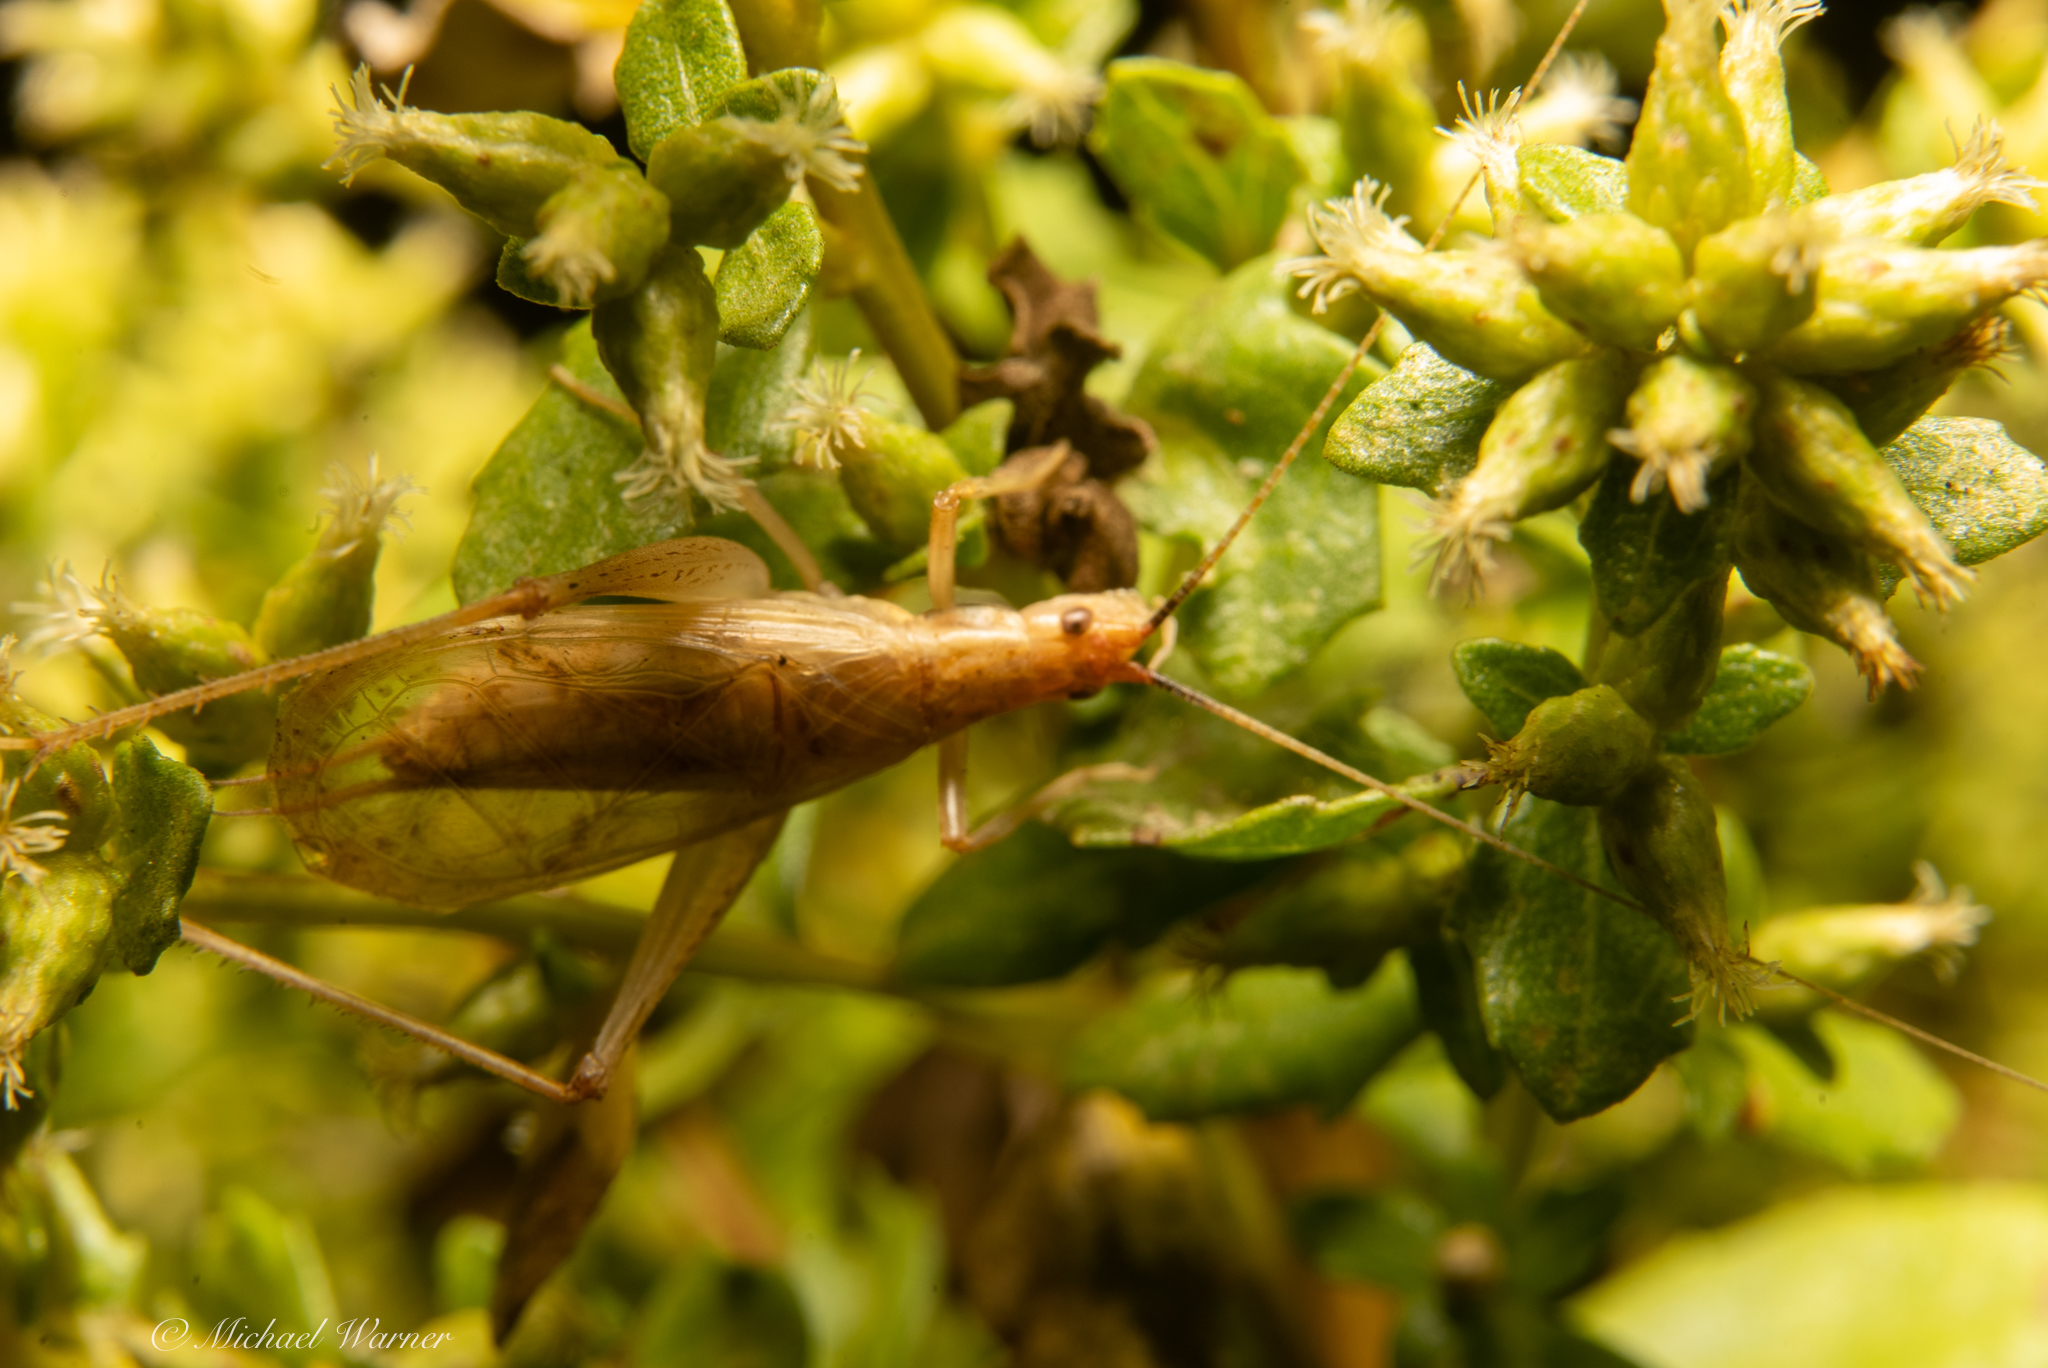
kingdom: Animalia
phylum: Arthropoda
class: Insecta
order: Orthoptera
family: Gryllidae
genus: Oecanthus
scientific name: Oecanthus californicus
